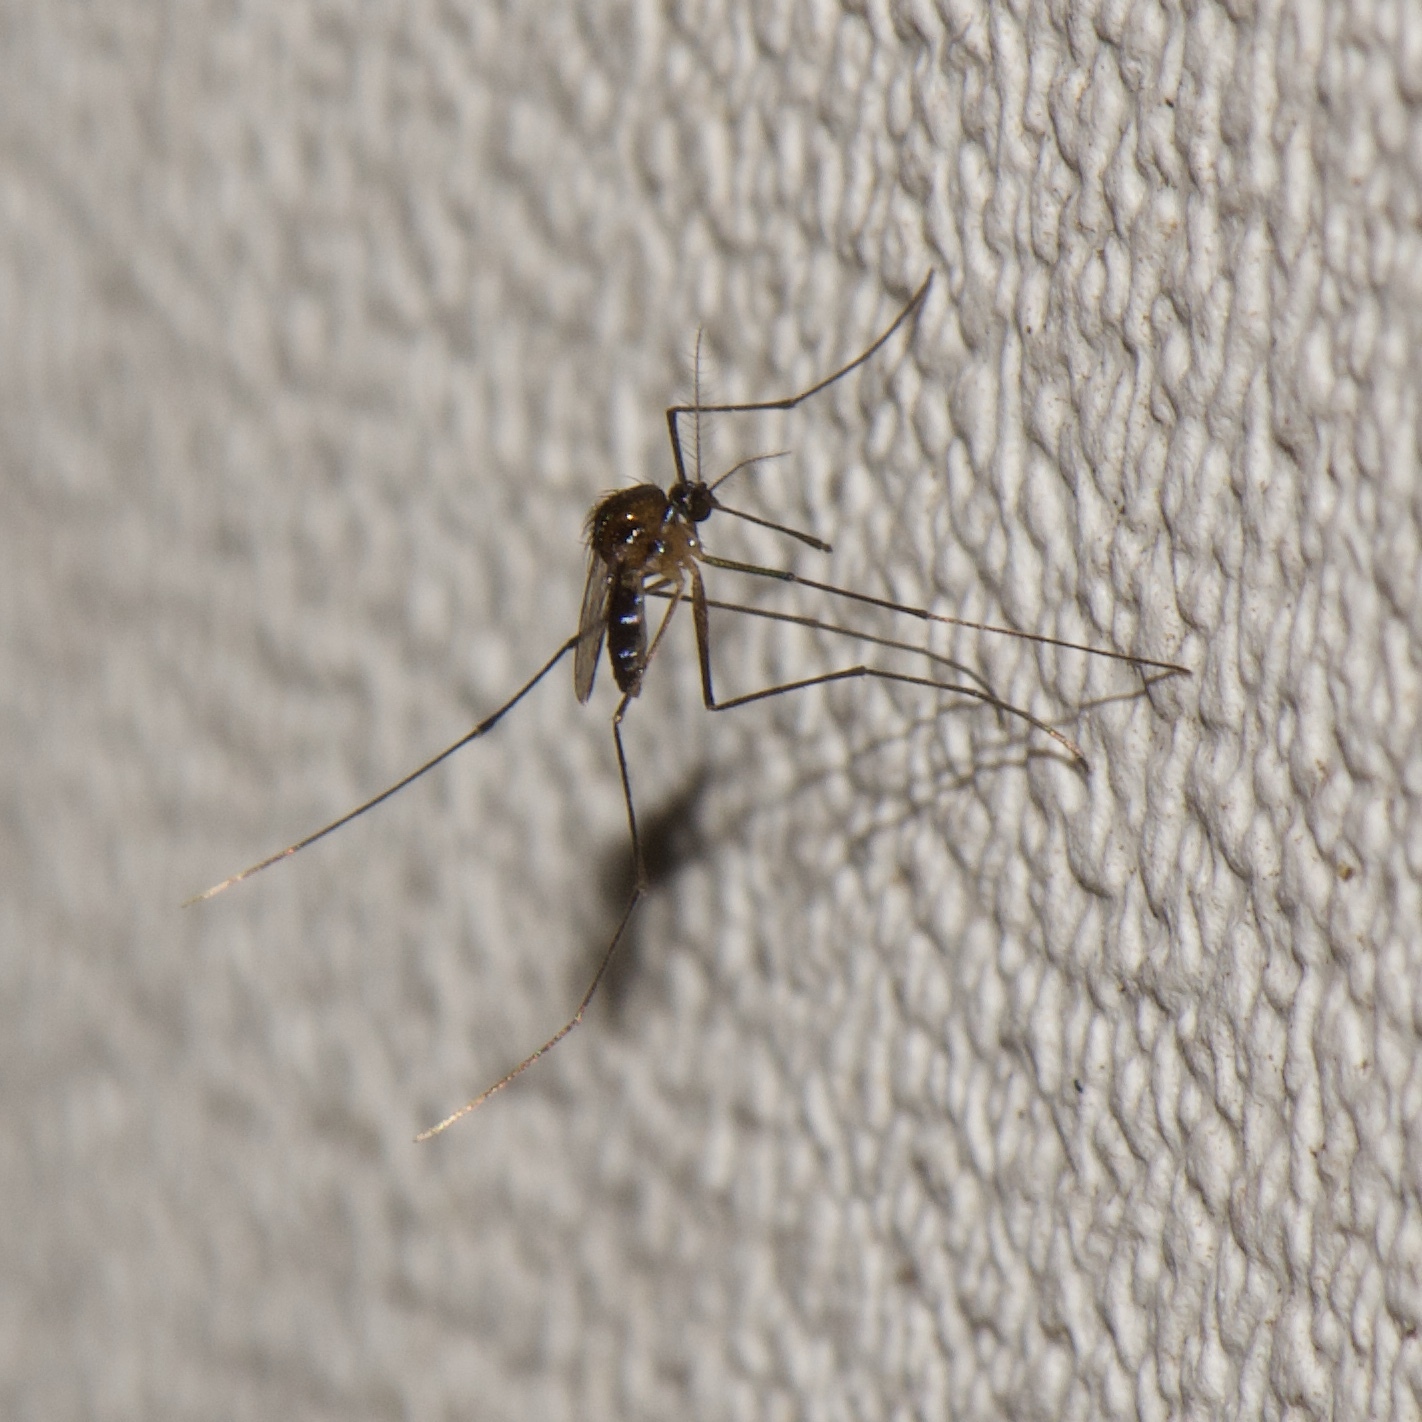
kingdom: Animalia
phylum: Arthropoda
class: Insecta
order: Diptera
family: Culicidae
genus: Uranotaenia
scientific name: Uranotaenia lowii
